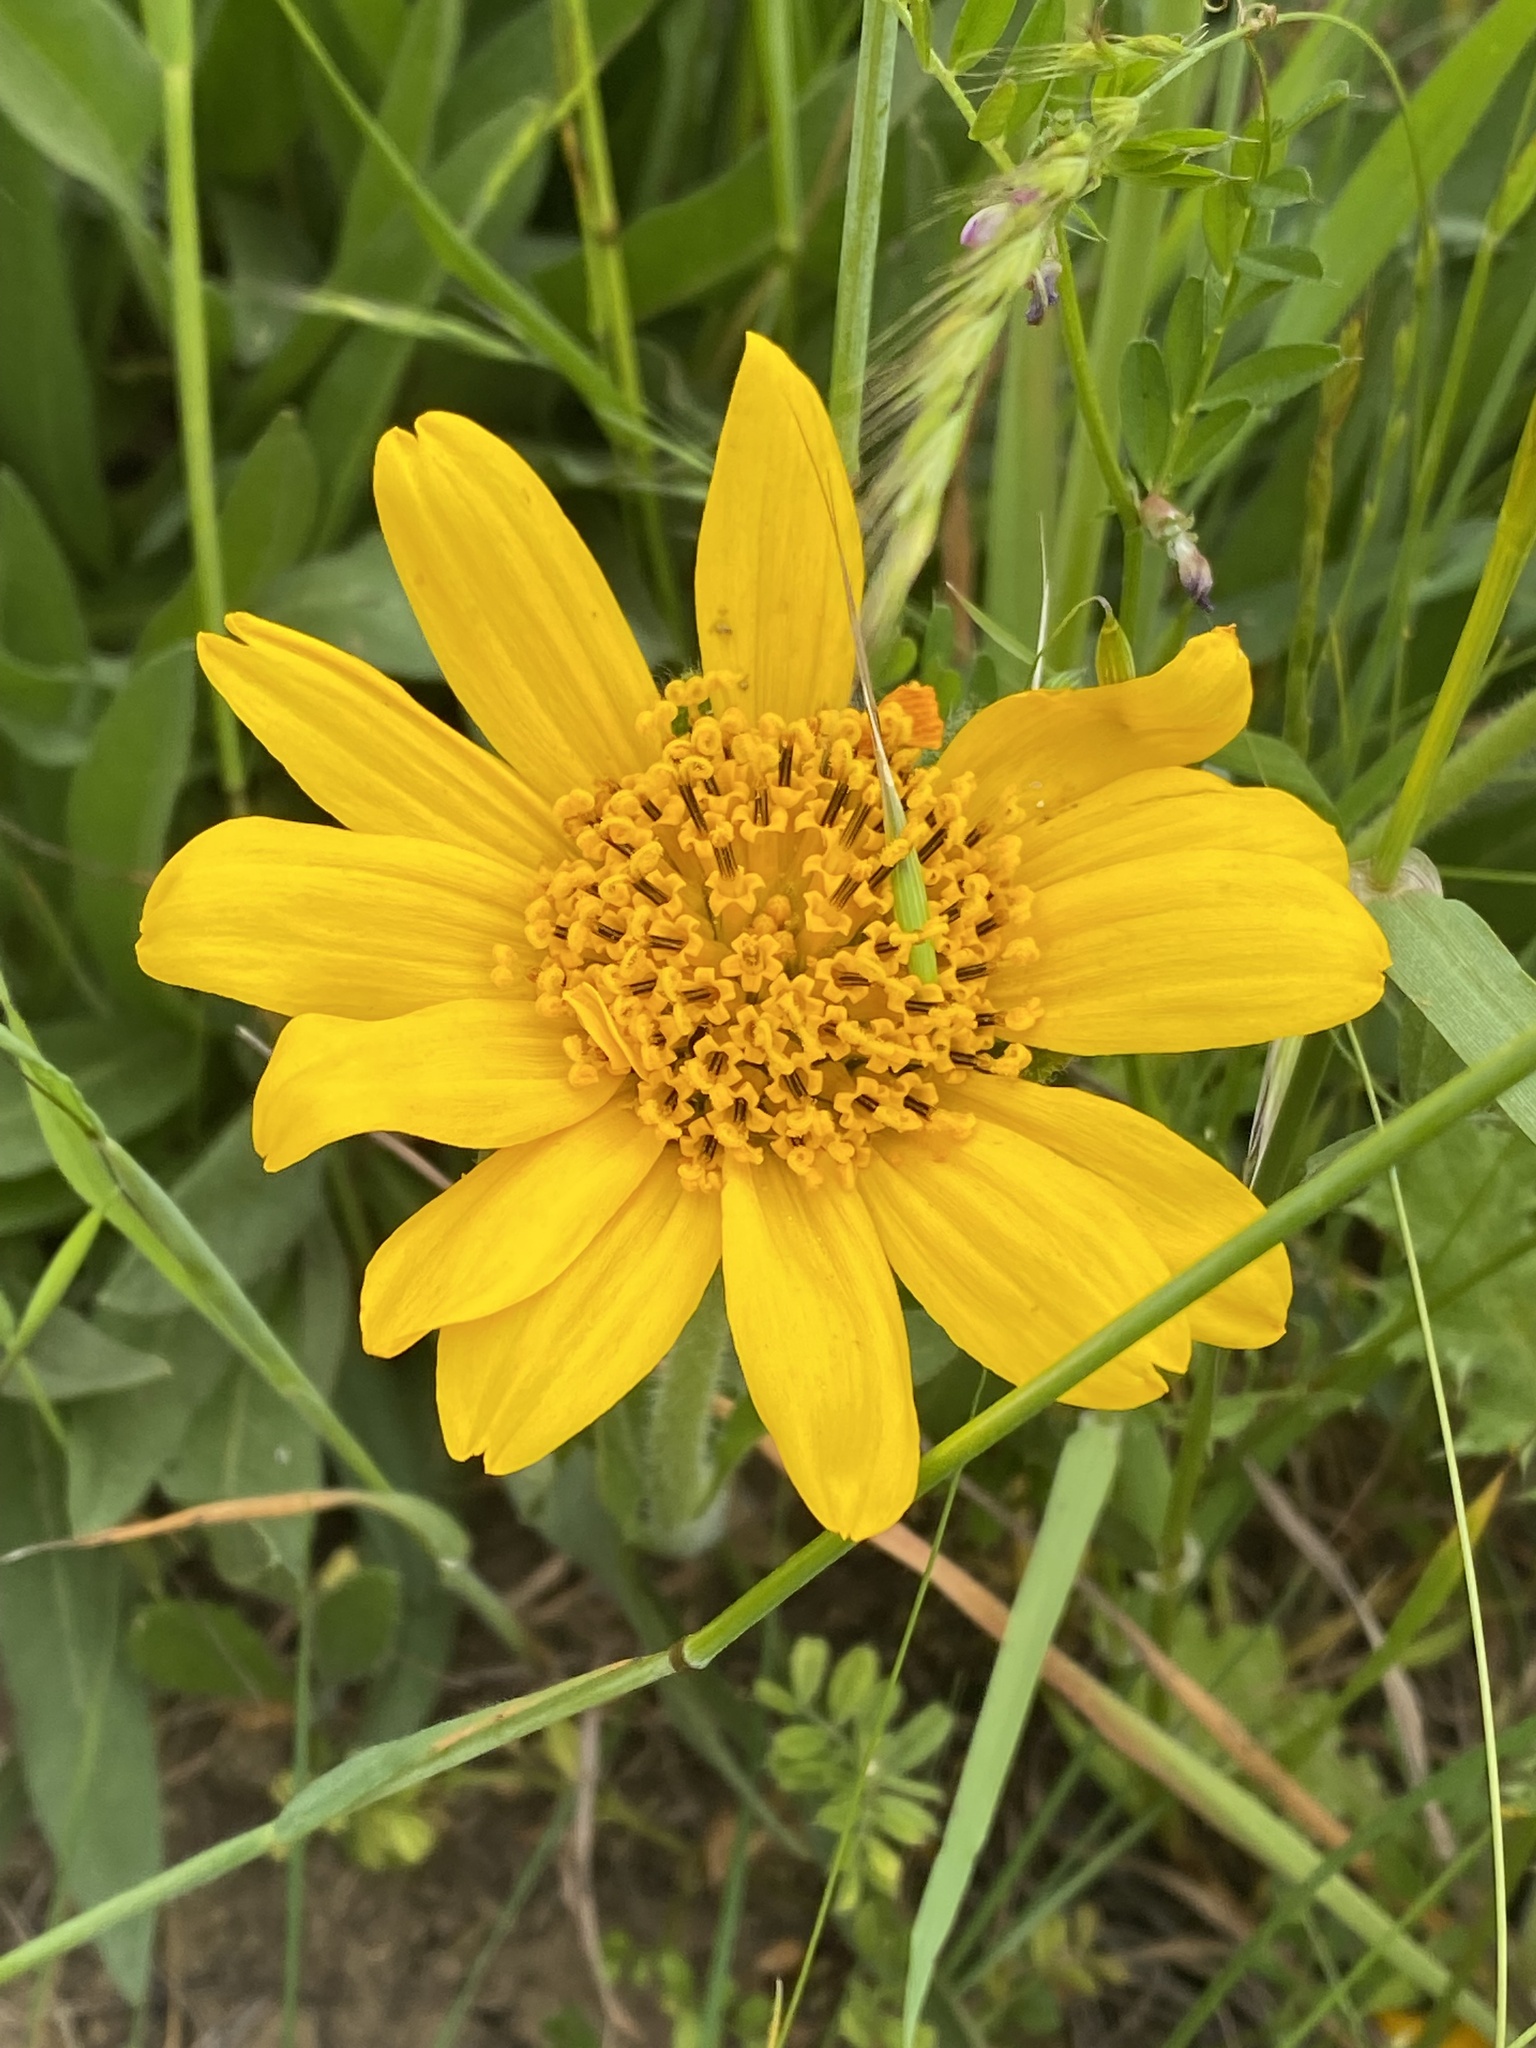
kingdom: Plantae
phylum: Tracheophyta
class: Magnoliopsida
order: Asterales
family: Asteraceae
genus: Wyethia
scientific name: Wyethia angustifolia
